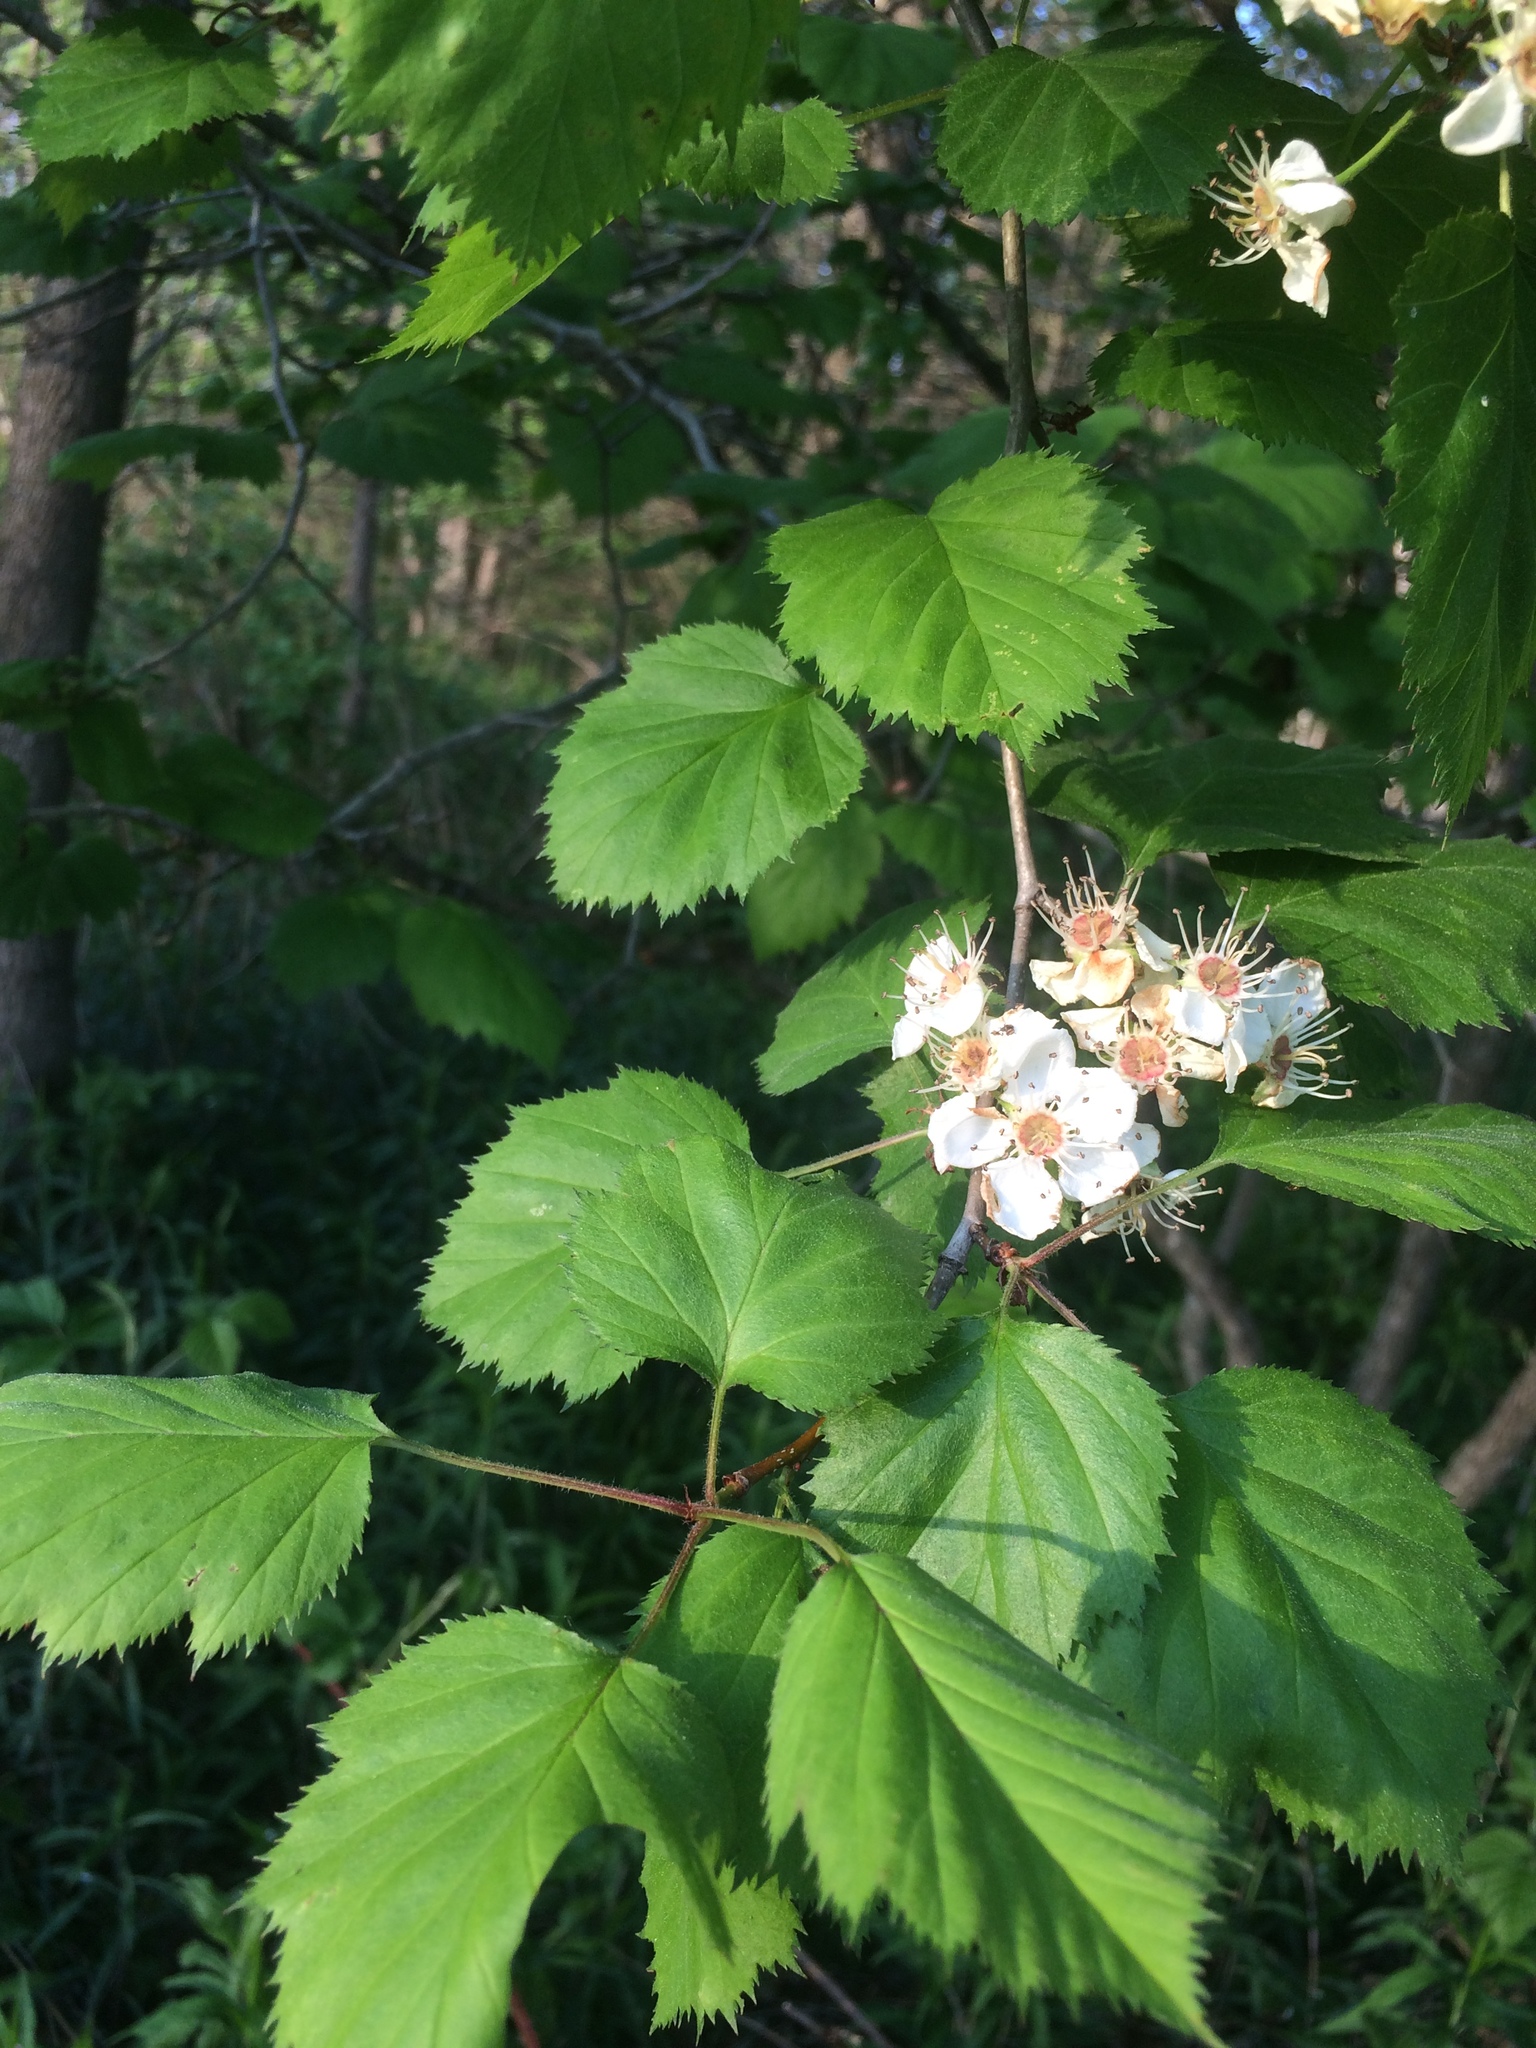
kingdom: Plantae
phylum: Tracheophyta
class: Magnoliopsida
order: Rosales
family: Rosaceae
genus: Crataegus
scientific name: Crataegus coccinioides
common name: Large-flowered cockspurthorn
